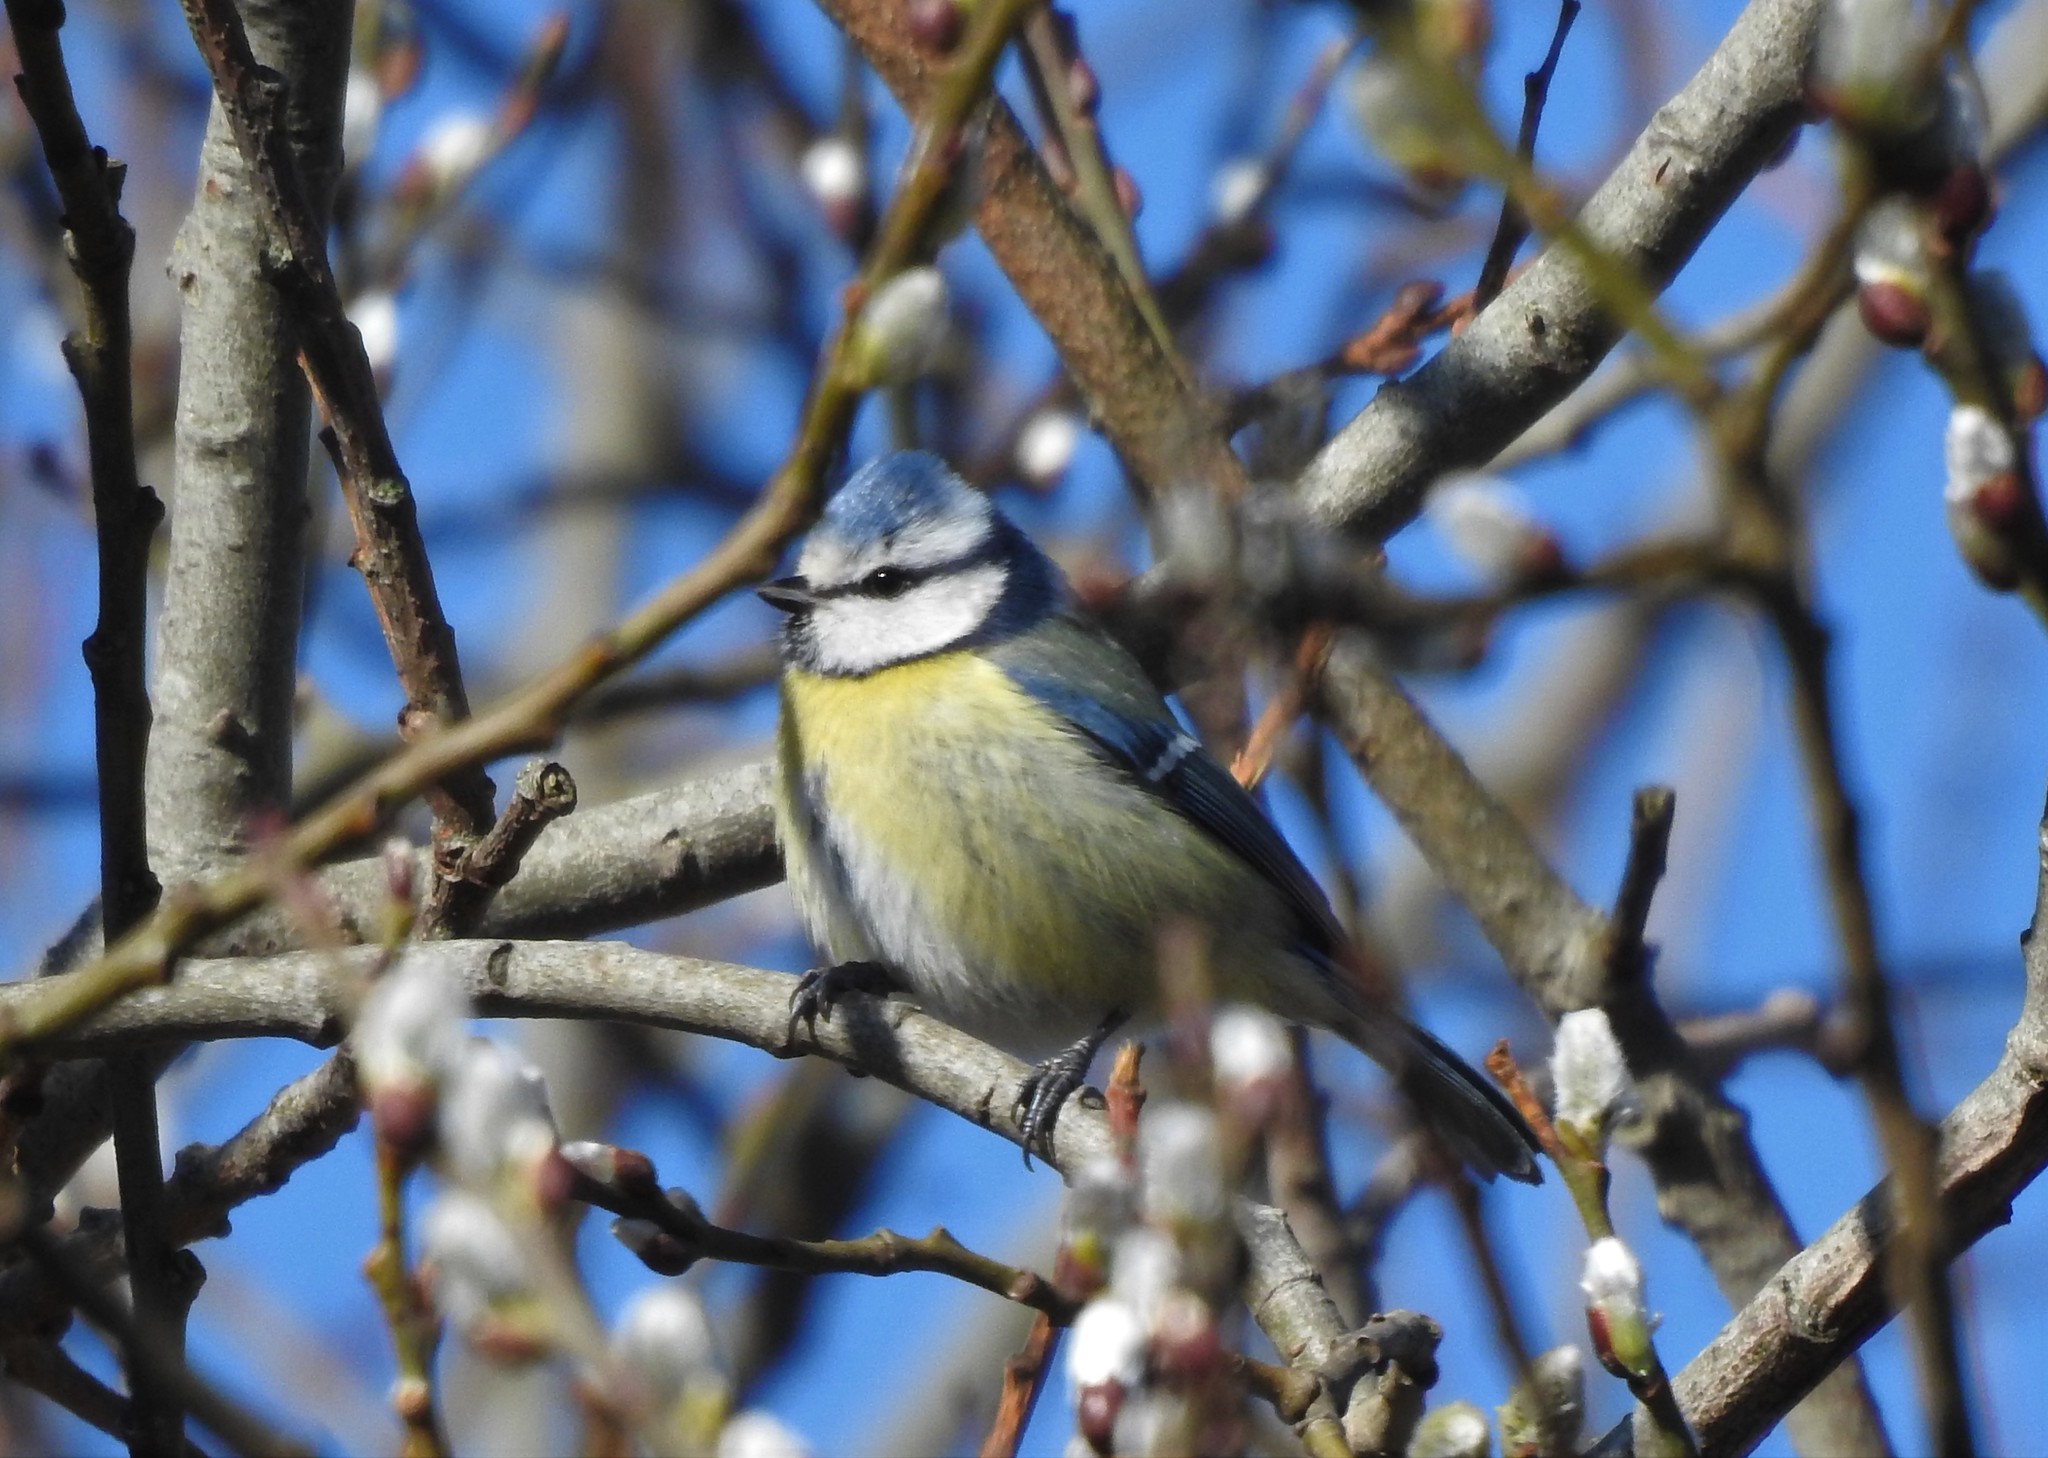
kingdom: Animalia
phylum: Chordata
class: Aves
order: Passeriformes
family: Paridae
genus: Cyanistes
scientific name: Cyanistes caeruleus
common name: Eurasian blue tit
